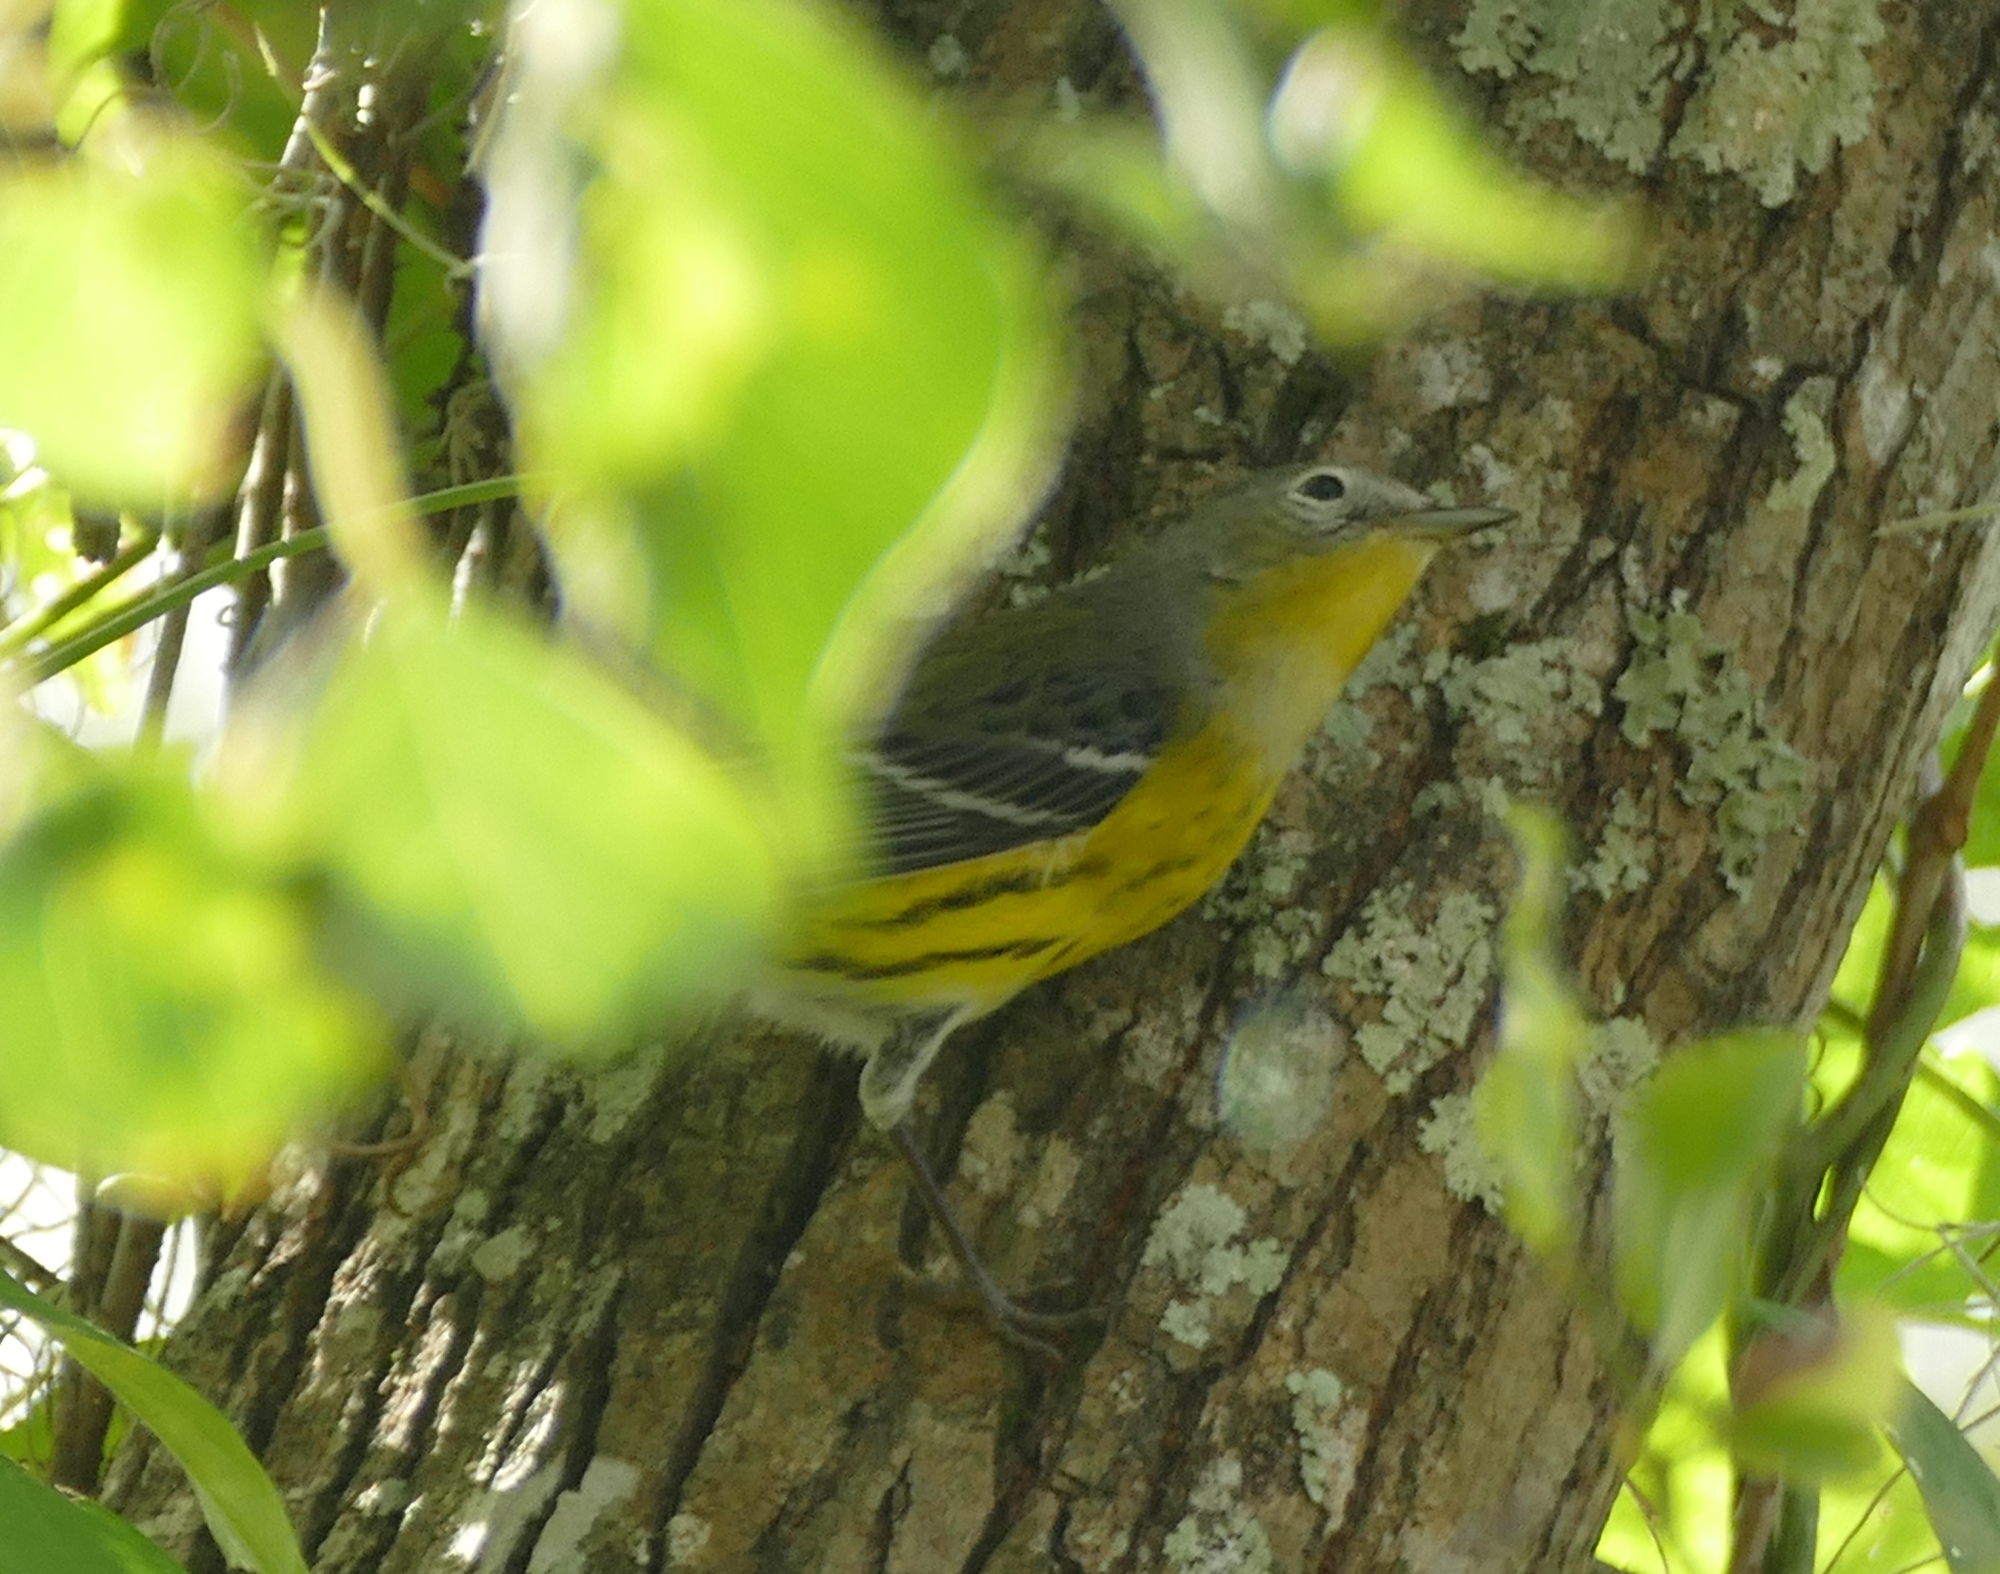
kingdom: Animalia
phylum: Chordata
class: Aves
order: Passeriformes
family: Parulidae
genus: Setophaga
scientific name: Setophaga magnolia
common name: Magnolia warbler
